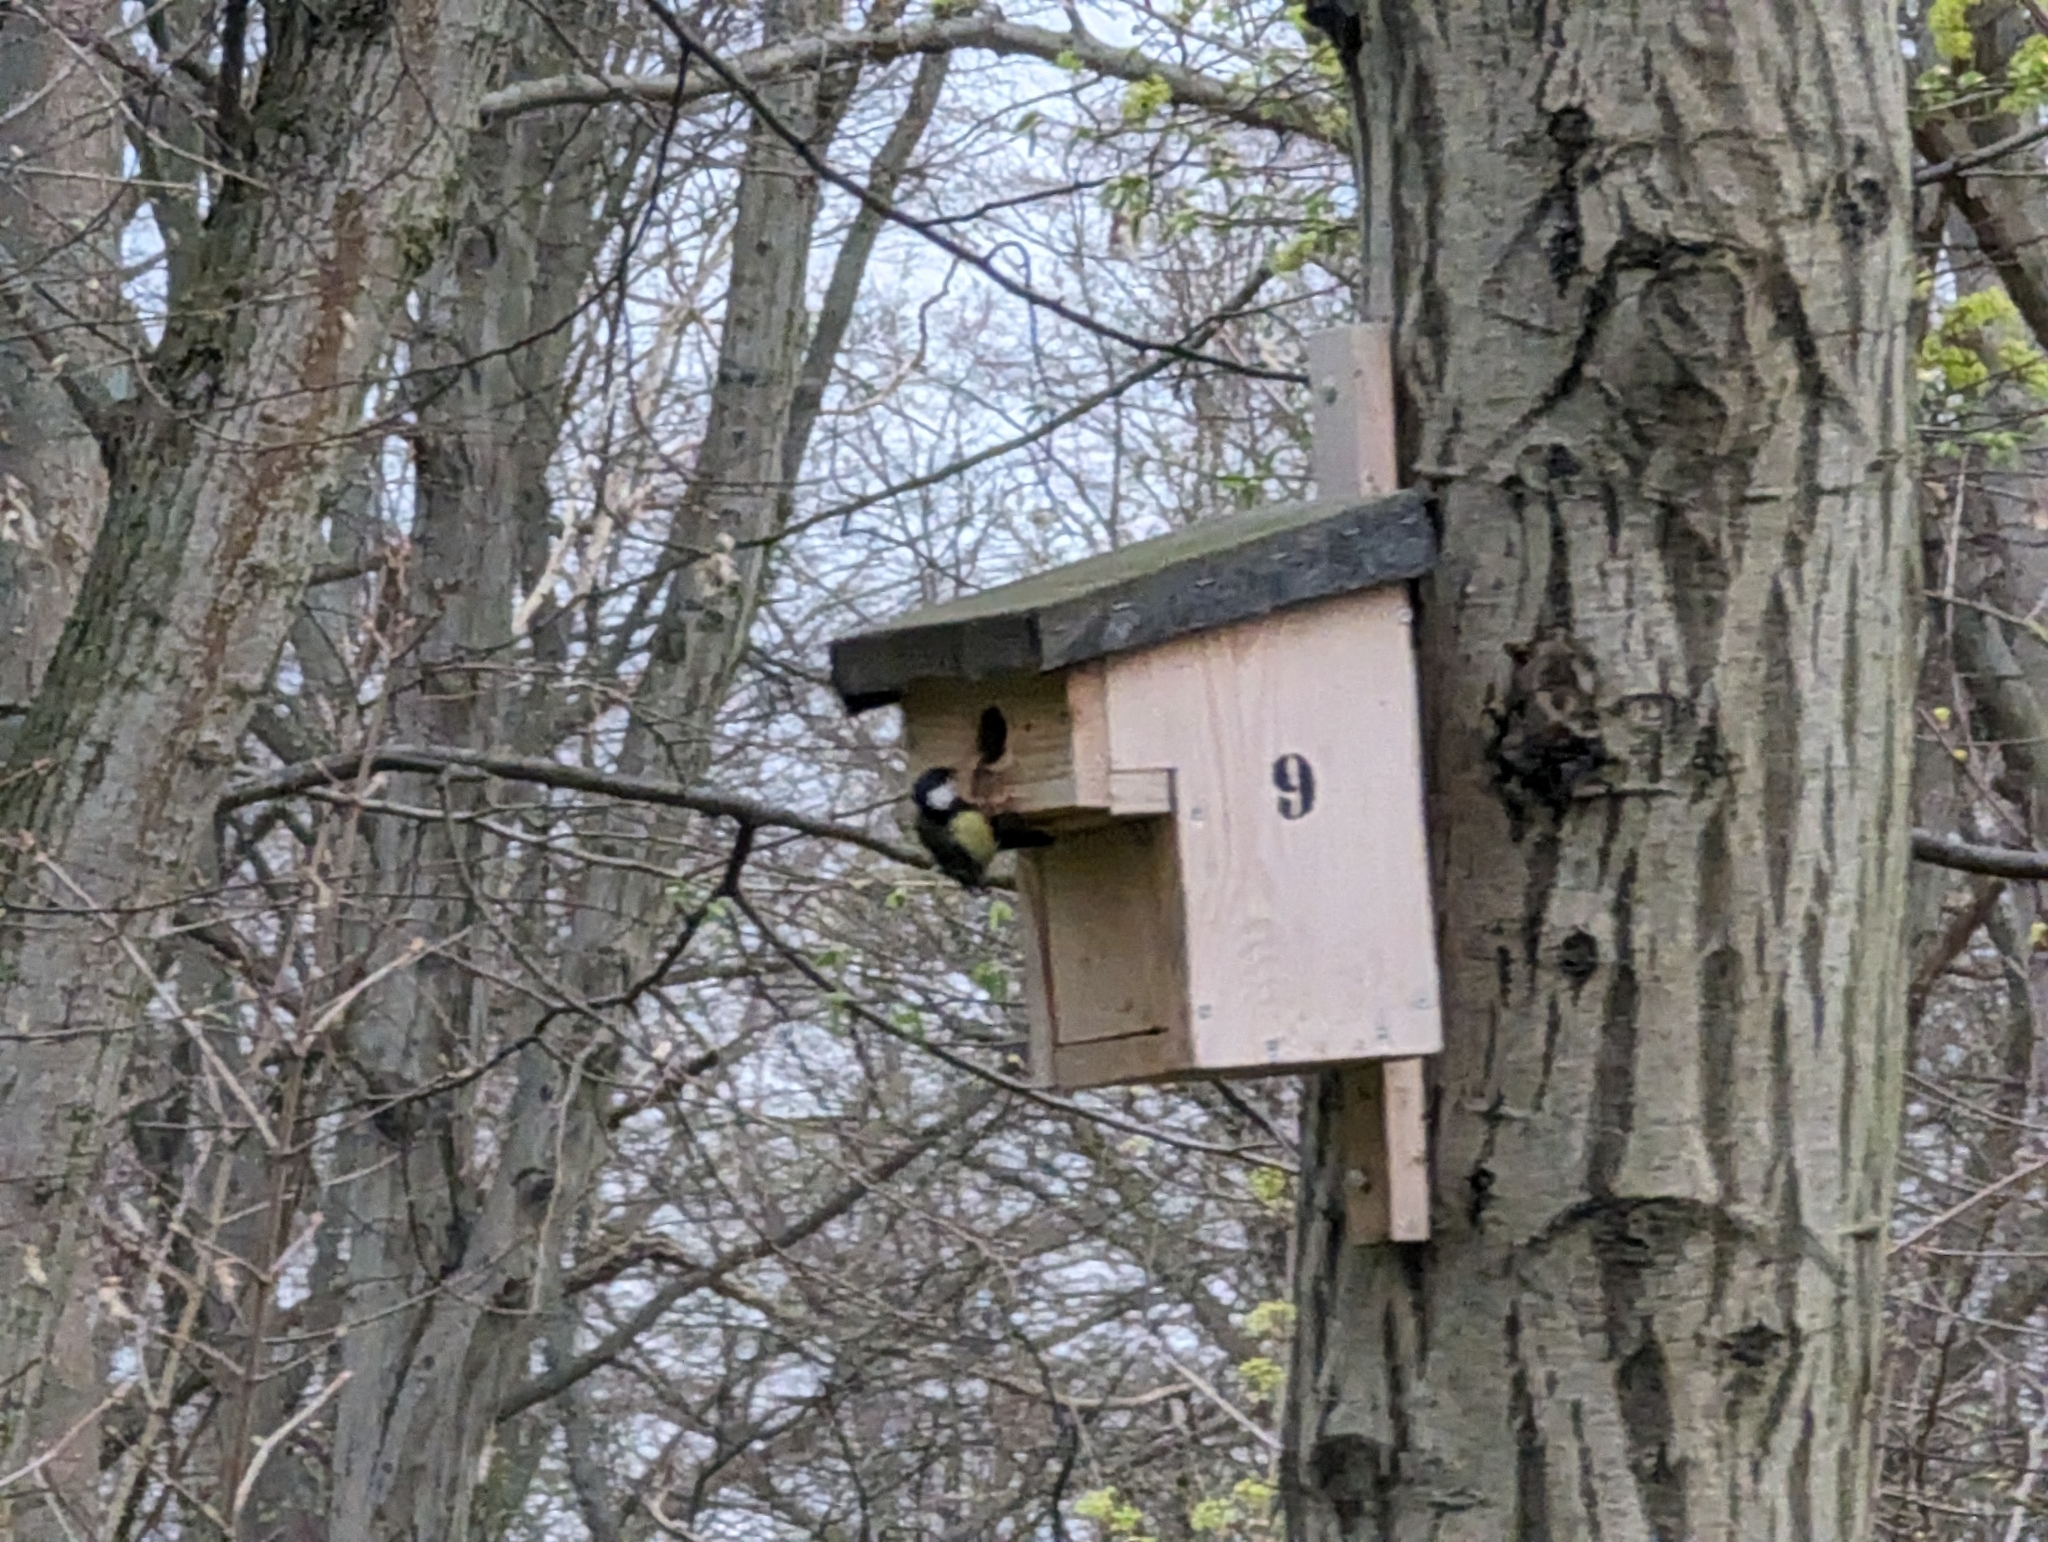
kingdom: Animalia
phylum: Chordata
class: Aves
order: Passeriformes
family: Paridae
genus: Parus
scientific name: Parus major
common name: Great tit
